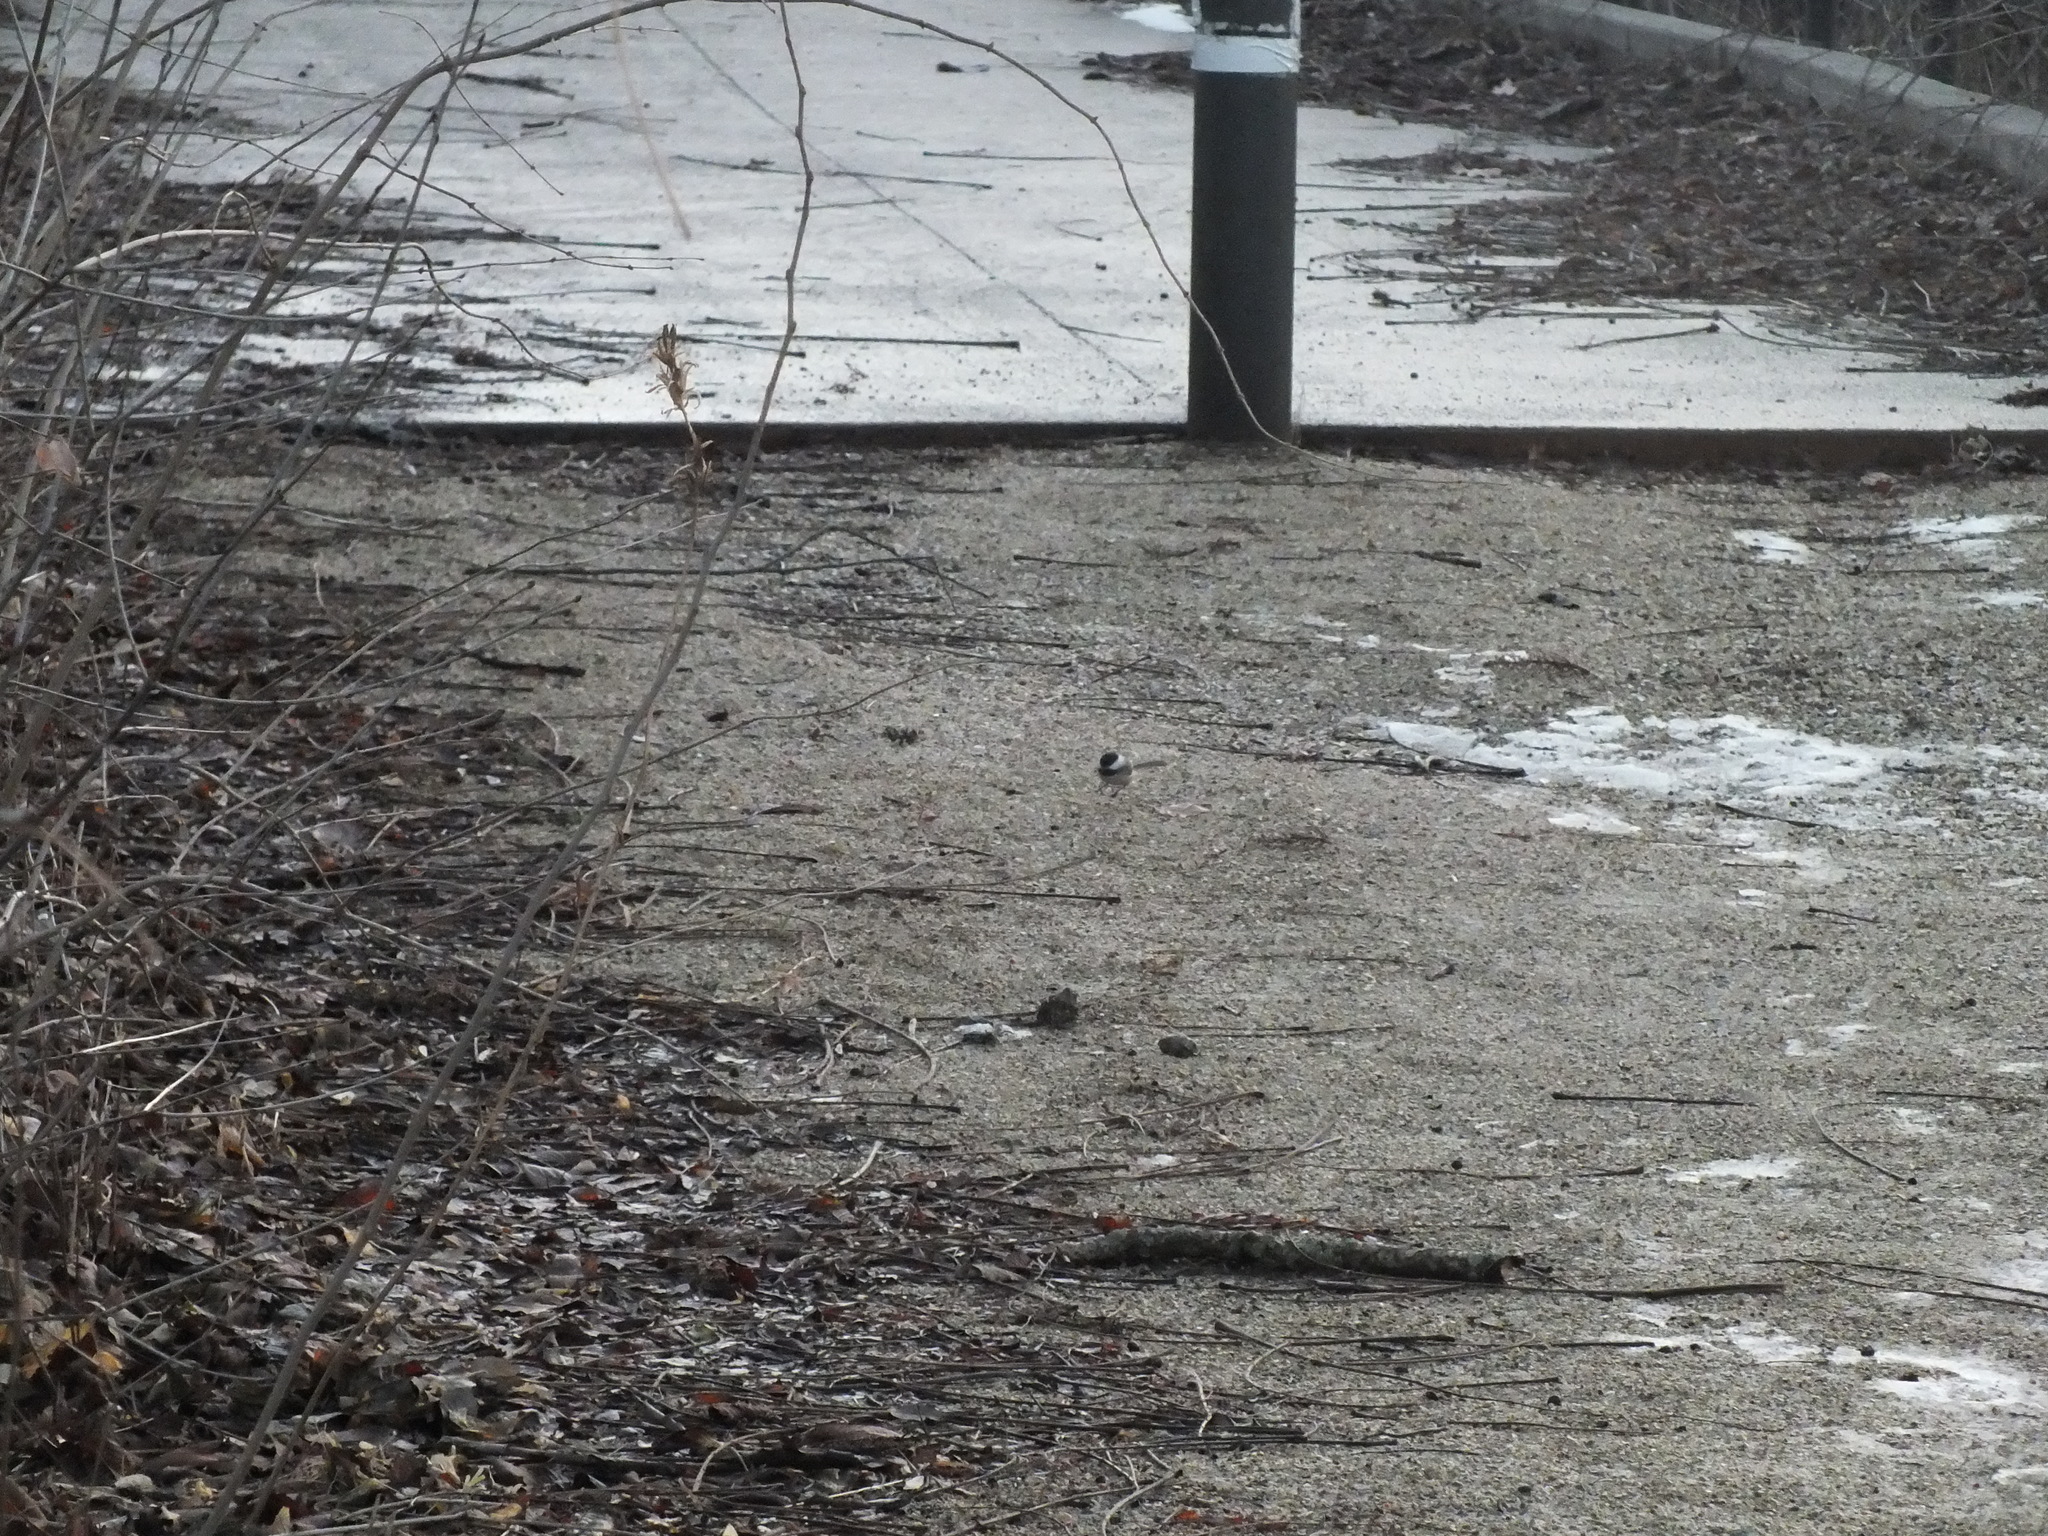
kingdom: Animalia
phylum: Chordata
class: Aves
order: Passeriformes
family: Paridae
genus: Poecile
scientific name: Poecile atricapillus
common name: Black-capped chickadee
